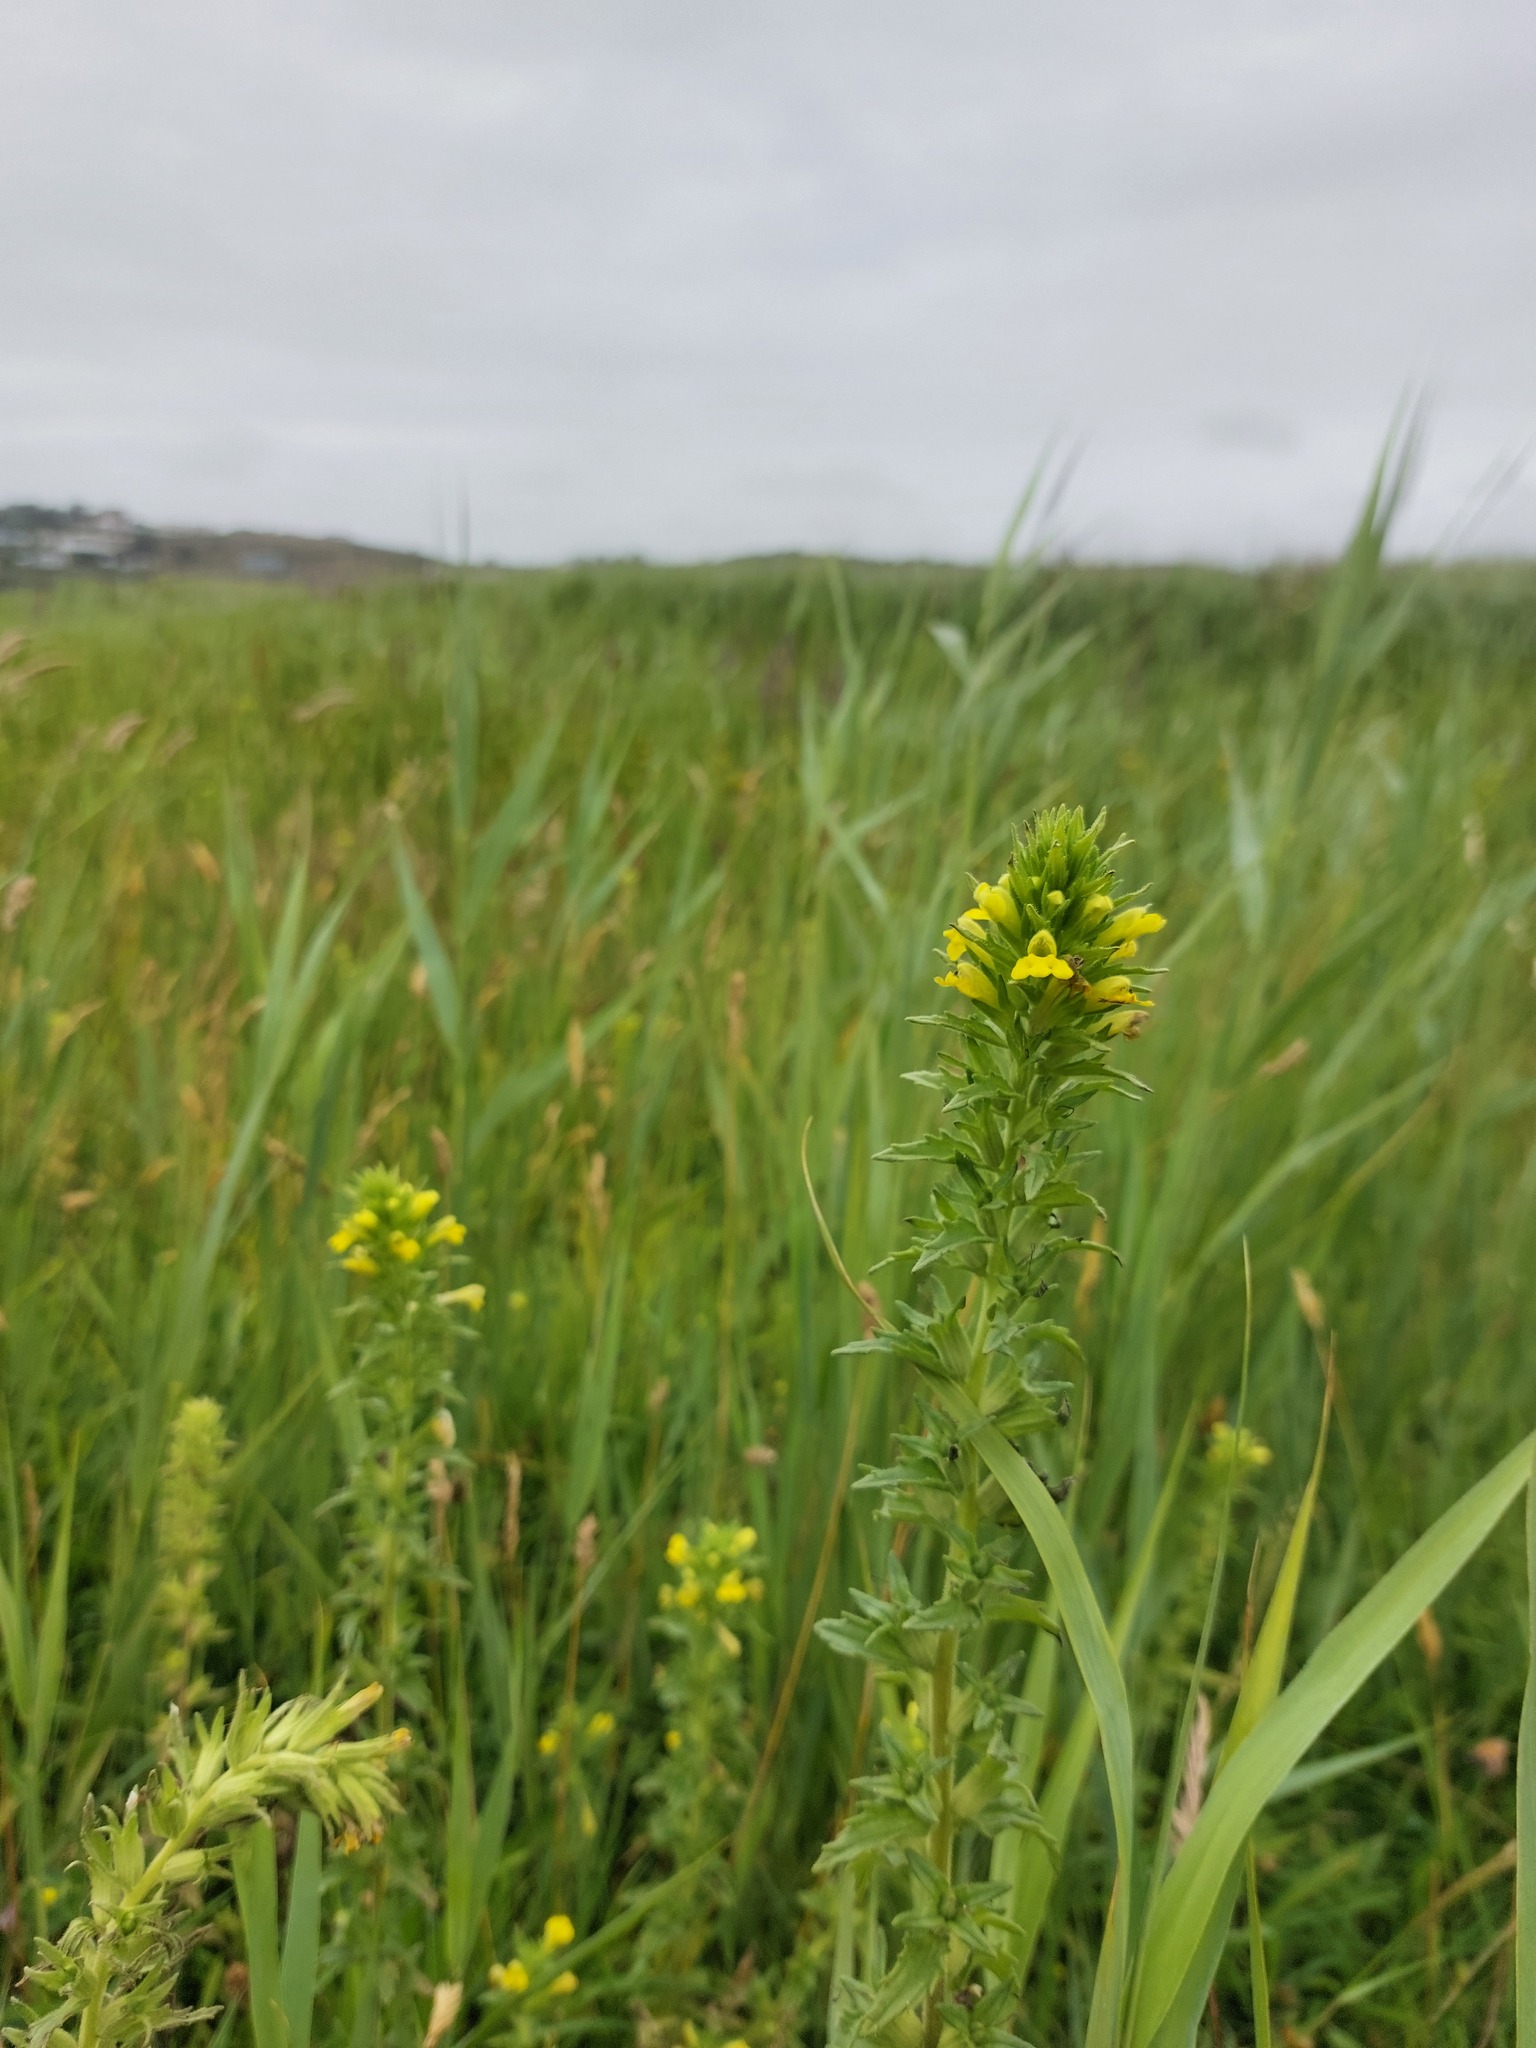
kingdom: Plantae
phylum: Tracheophyta
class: Magnoliopsida
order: Lamiales
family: Orobanchaceae
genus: Bellardia
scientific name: Bellardia viscosa
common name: Sticky parentucellia
